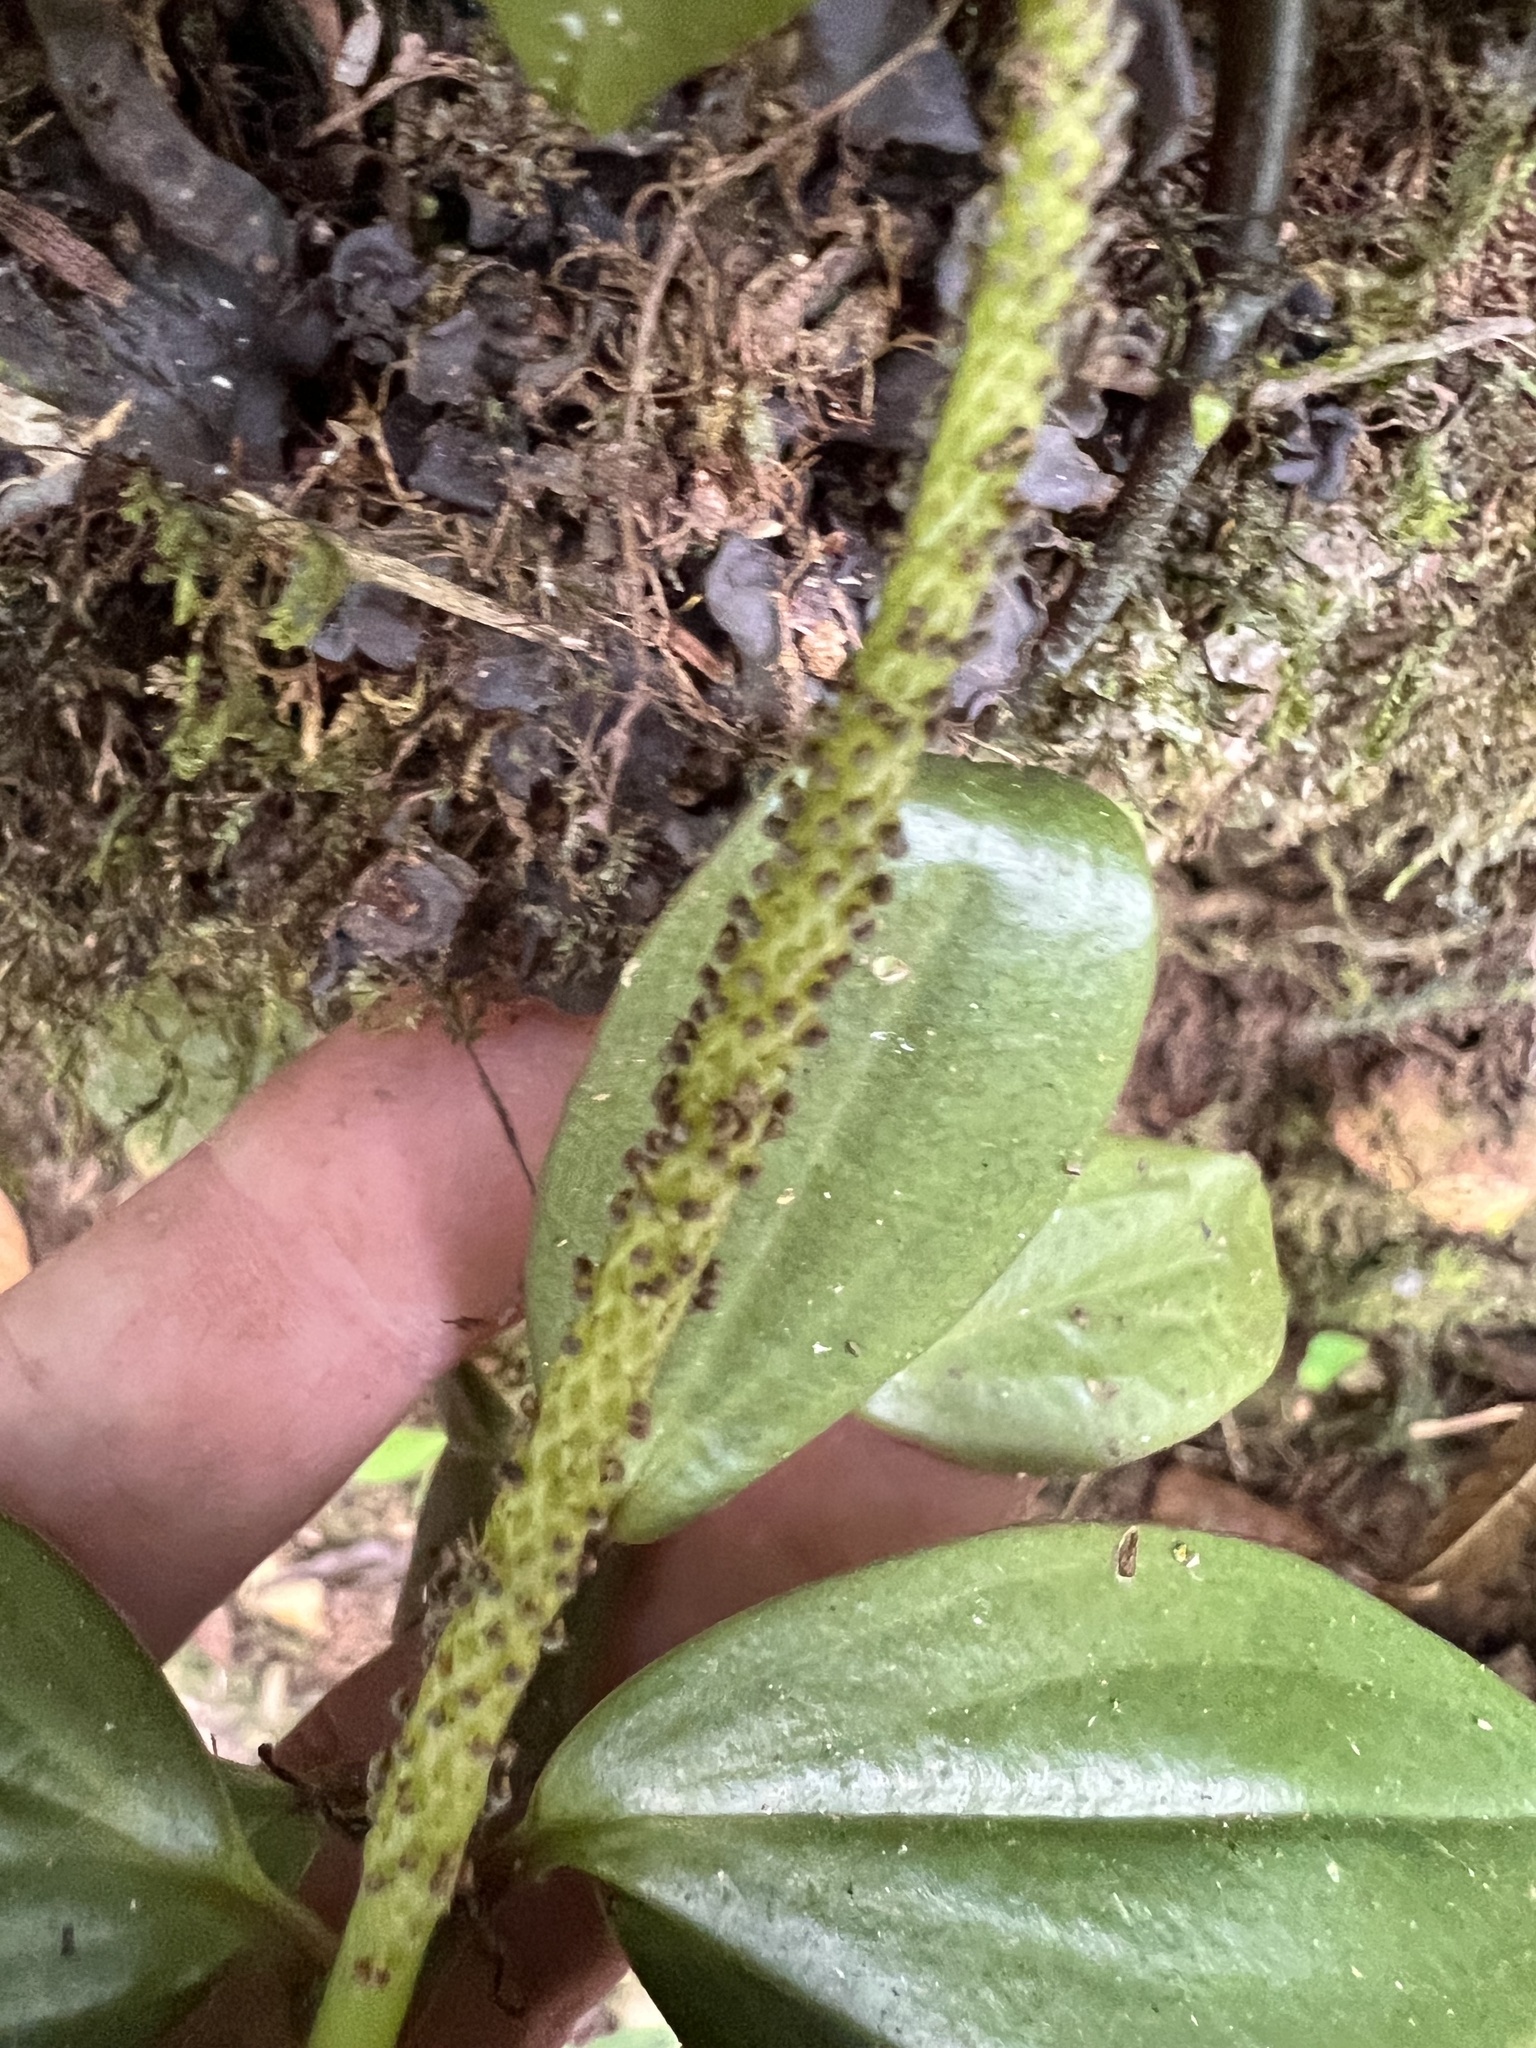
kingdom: Plantae
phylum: Tracheophyta
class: Magnoliopsida
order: Piperales
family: Piperaceae
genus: Peperomia
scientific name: Peperomia san-joseana
